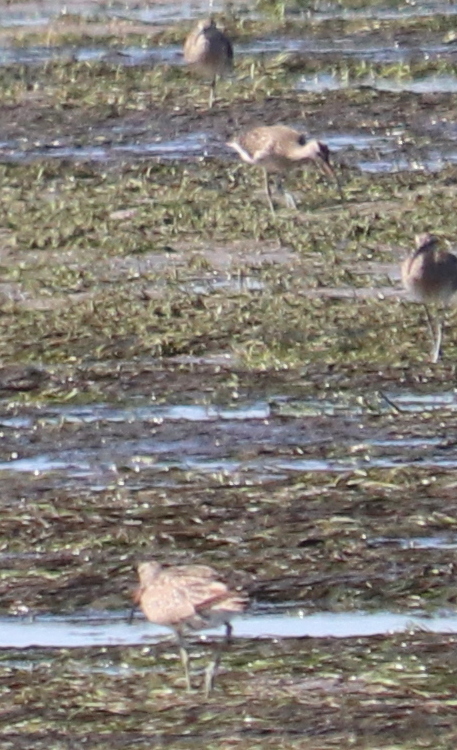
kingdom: Animalia
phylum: Chordata
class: Aves
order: Charadriiformes
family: Scolopacidae
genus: Numenius
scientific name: Numenius phaeopus
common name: Whimbrel
